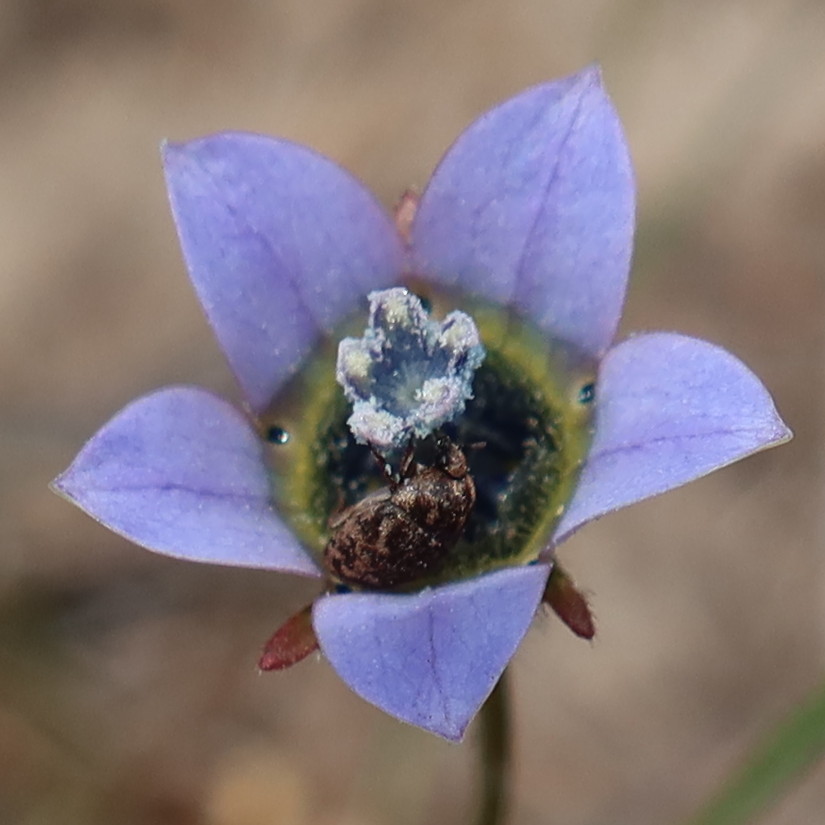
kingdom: Plantae
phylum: Tracheophyta
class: Magnoliopsida
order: Asterales
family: Campanulaceae
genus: Wahlenbergia
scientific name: Wahlenbergia capensis
